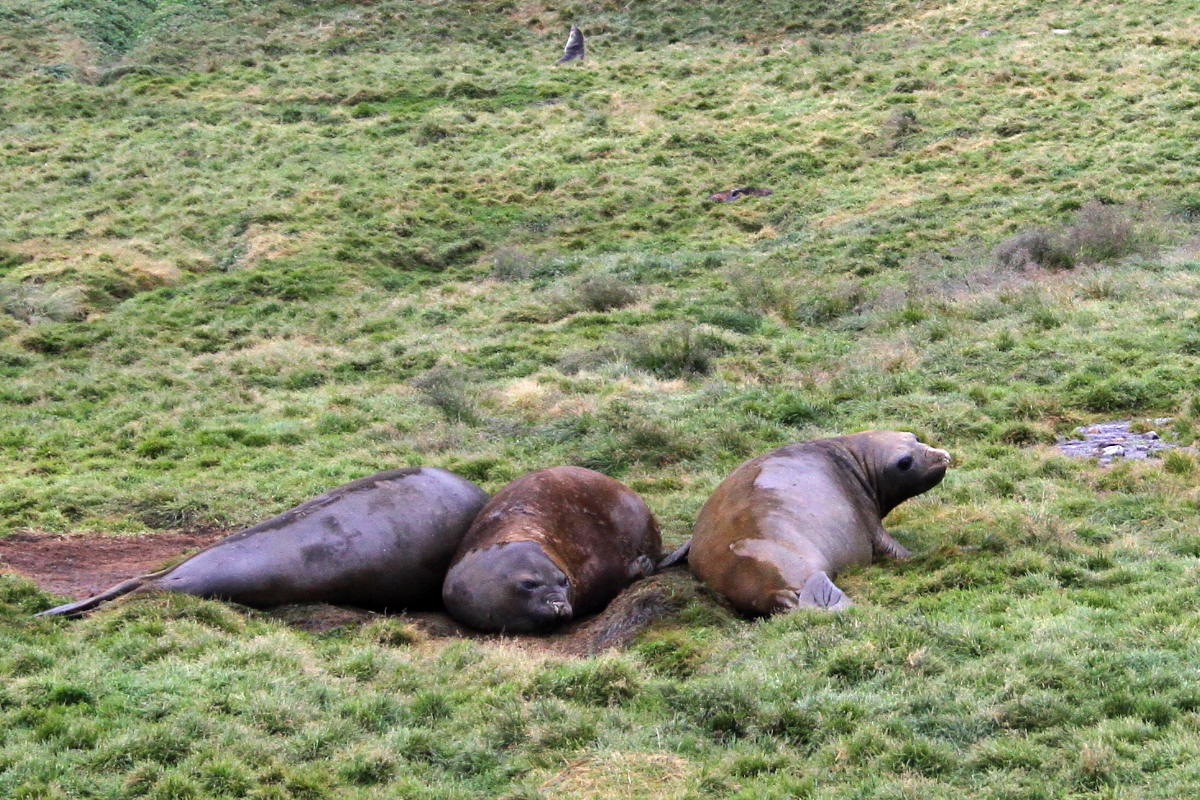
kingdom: Animalia
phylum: Chordata
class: Mammalia
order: Carnivora
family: Phocidae
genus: Mirounga
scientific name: Mirounga leonina
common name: Southern elephant seal
